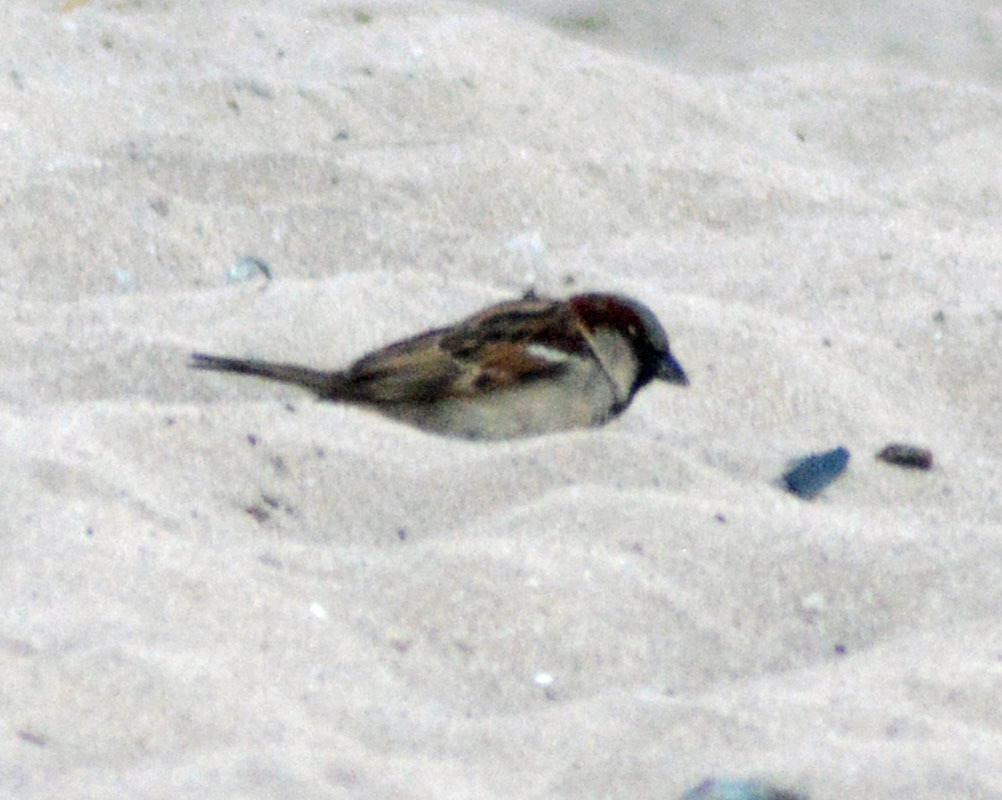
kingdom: Animalia
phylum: Chordata
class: Aves
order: Passeriformes
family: Passeridae
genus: Passer
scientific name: Passer domesticus
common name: House sparrow
